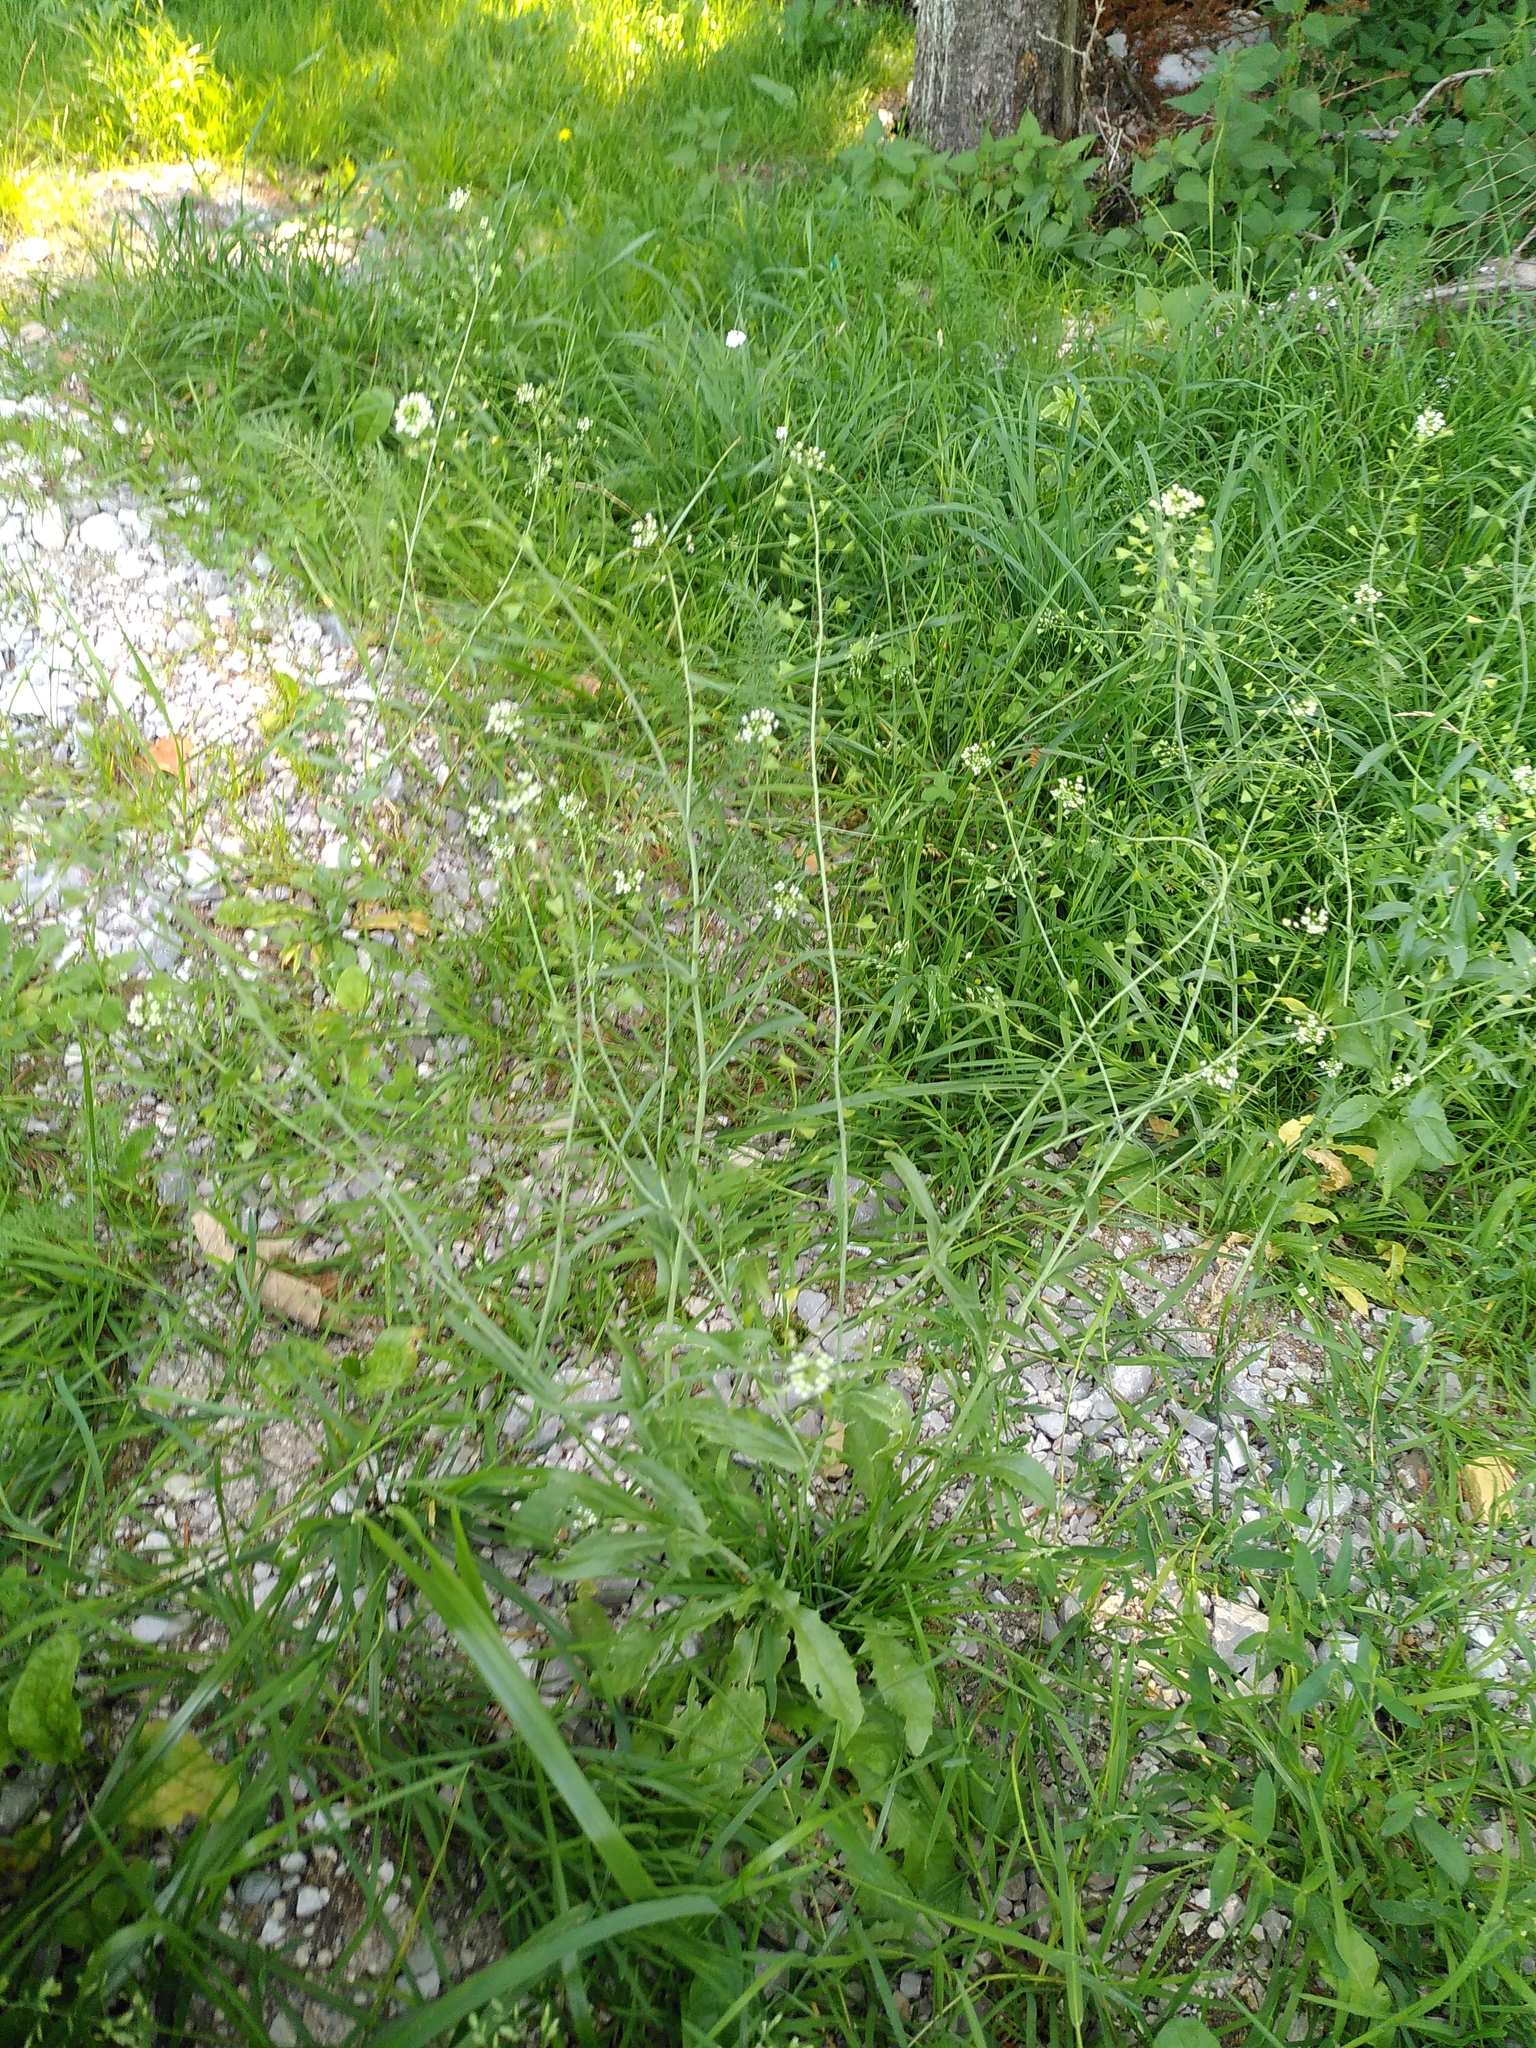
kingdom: Plantae
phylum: Tracheophyta
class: Magnoliopsida
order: Brassicales
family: Brassicaceae
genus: Capsella
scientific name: Capsella bursa-pastoris
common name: Shepherd's purse
